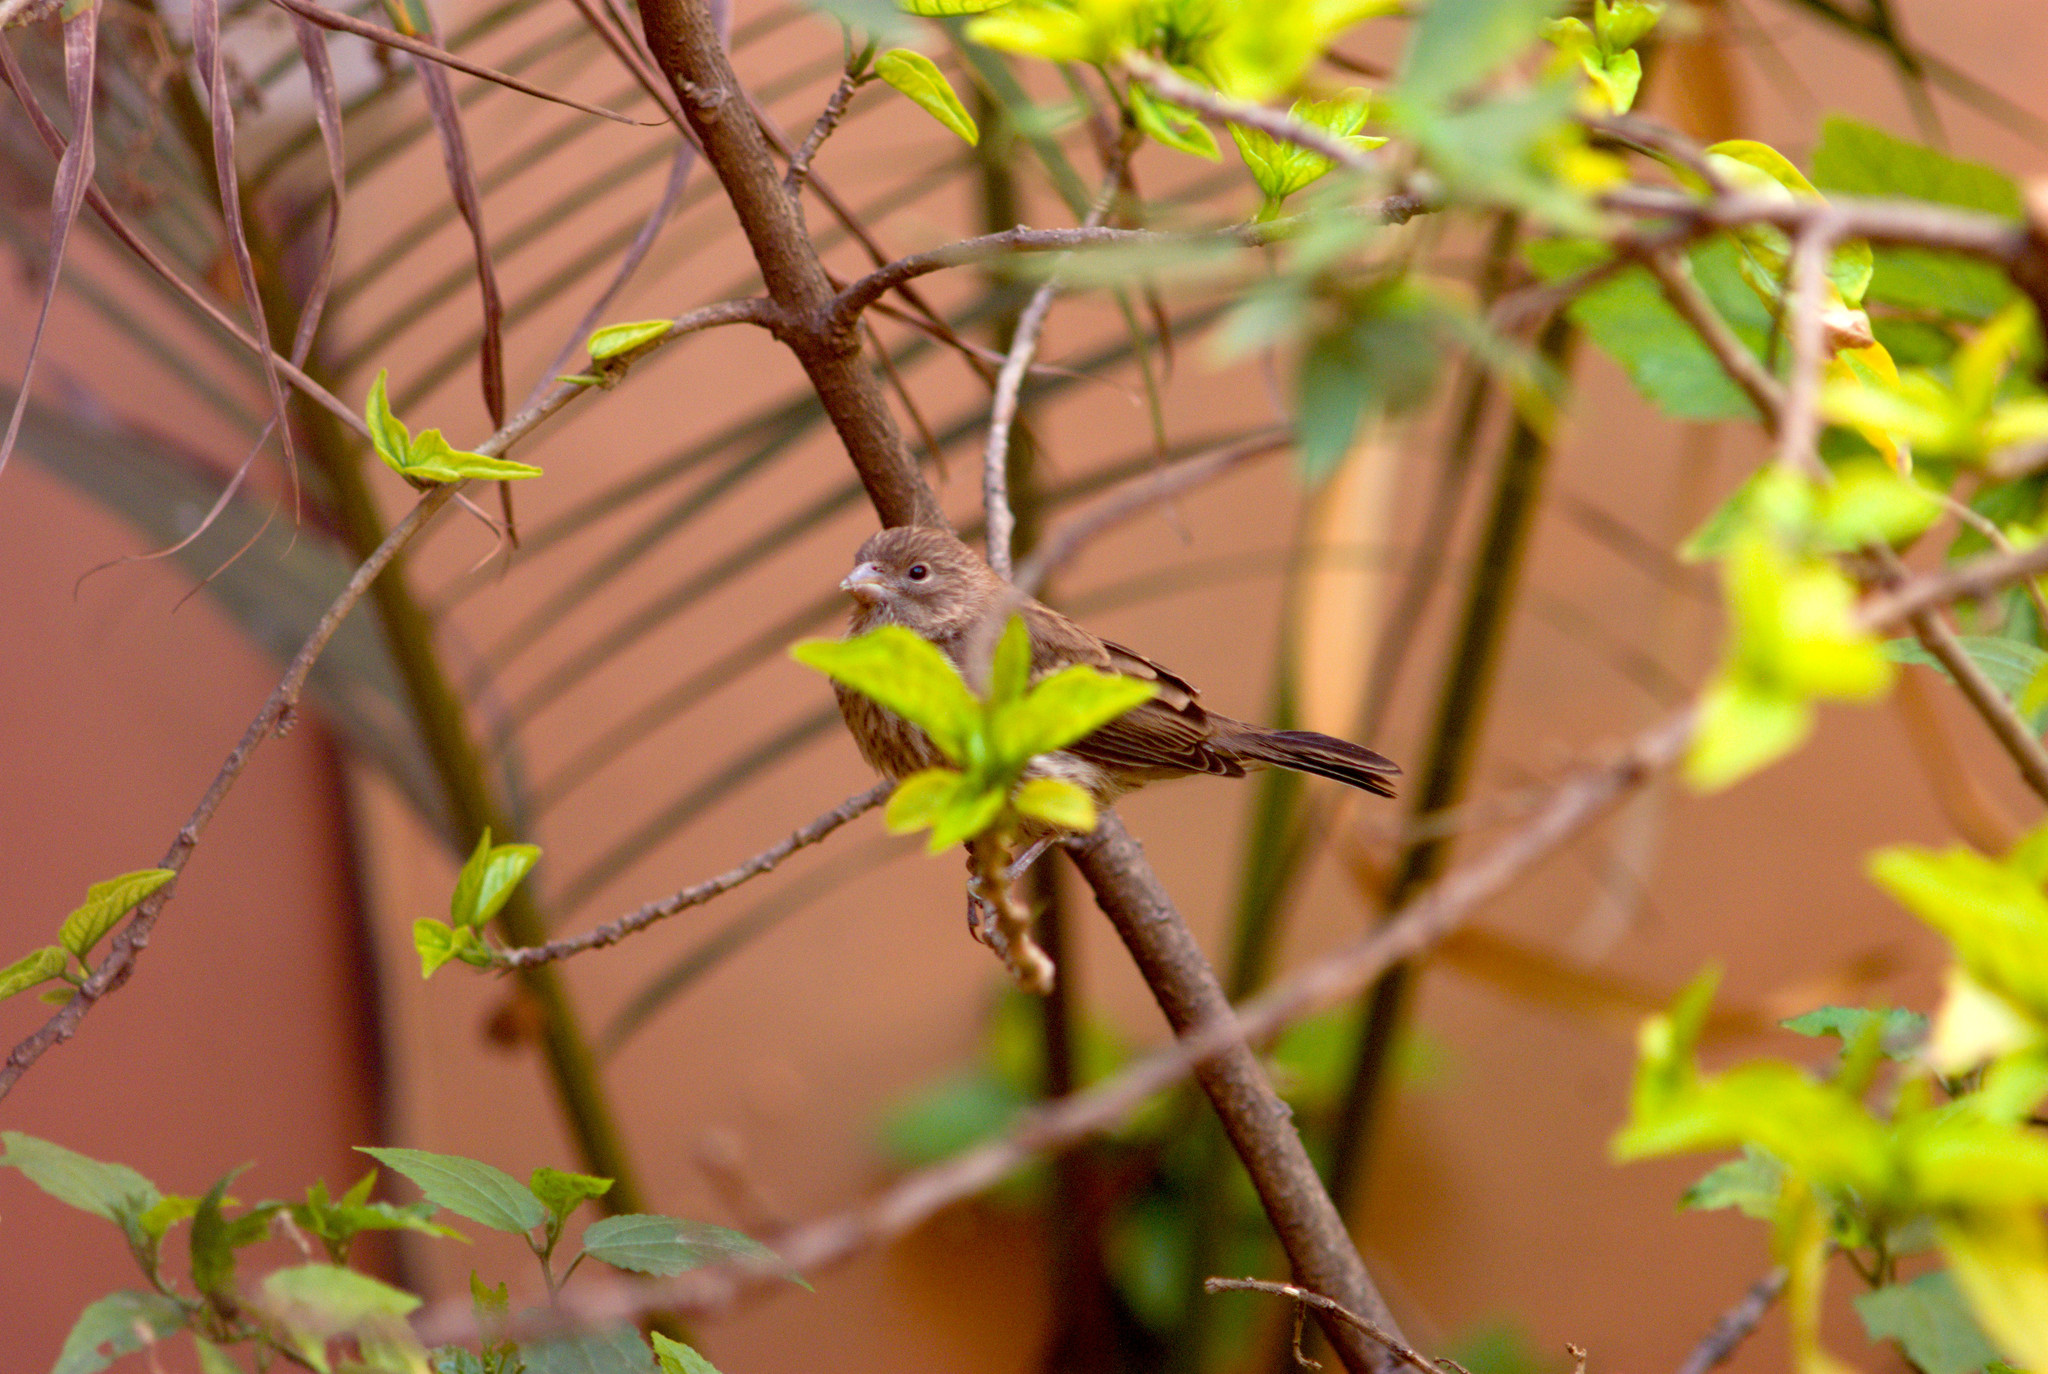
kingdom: Animalia
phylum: Chordata
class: Aves
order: Passeriformes
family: Fringillidae
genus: Haemorhous
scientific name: Haemorhous mexicanus
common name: House finch
